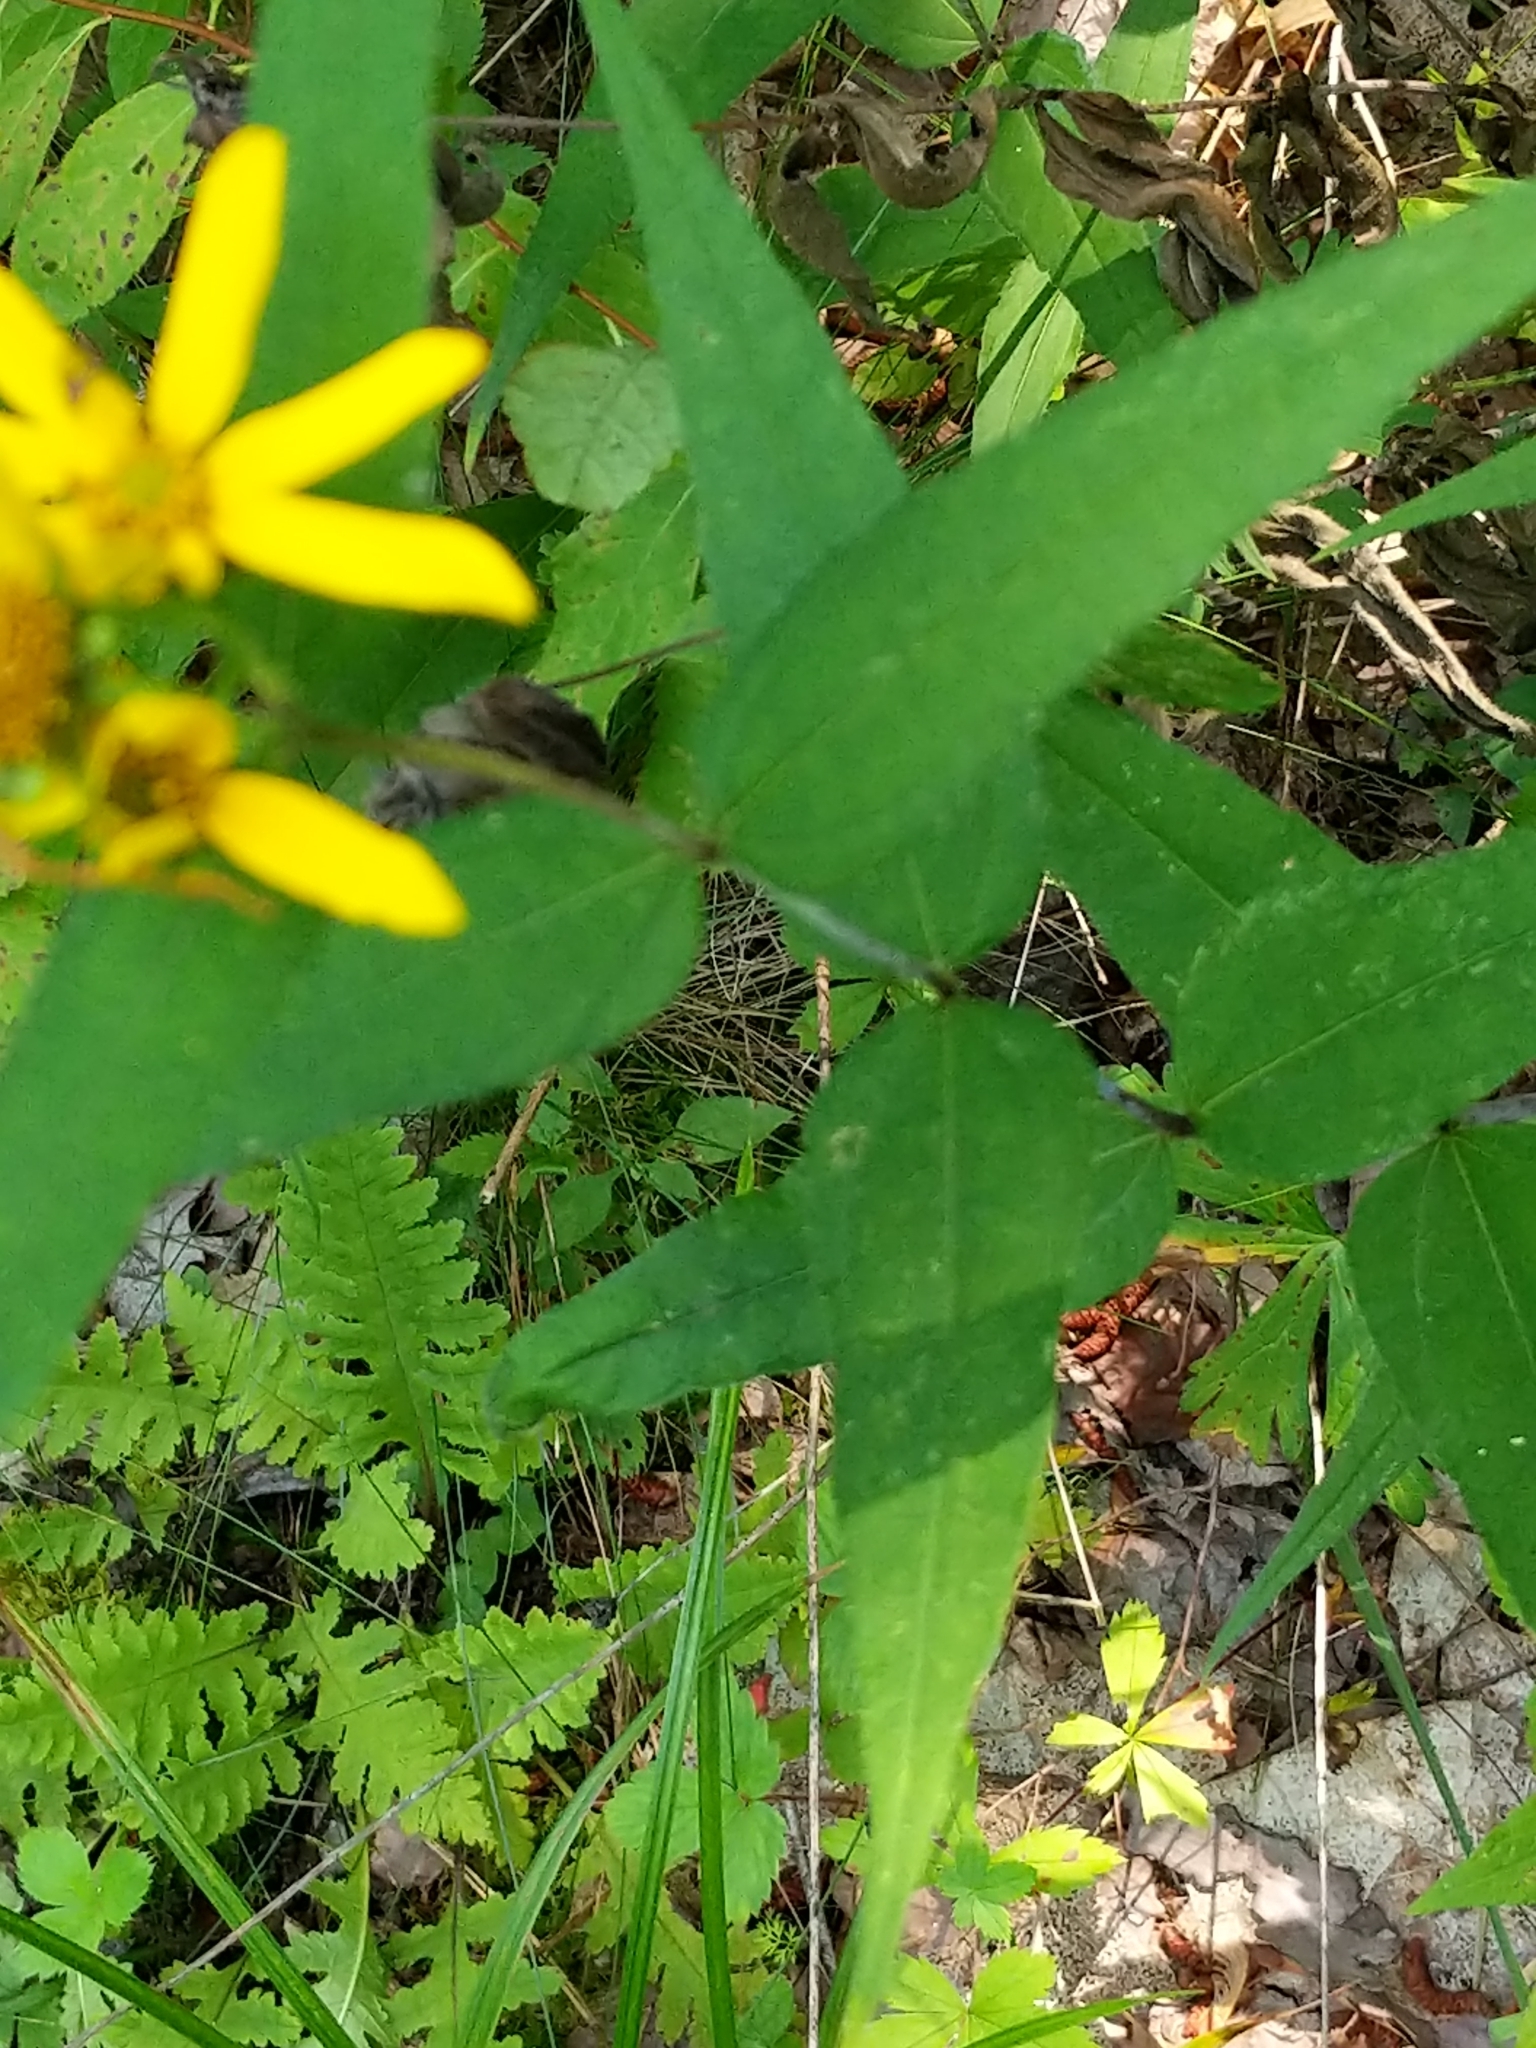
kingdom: Plantae
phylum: Tracheophyta
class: Magnoliopsida
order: Asterales
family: Asteraceae
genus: Helianthus
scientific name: Helianthus divaricatus
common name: Divergent sunflower
